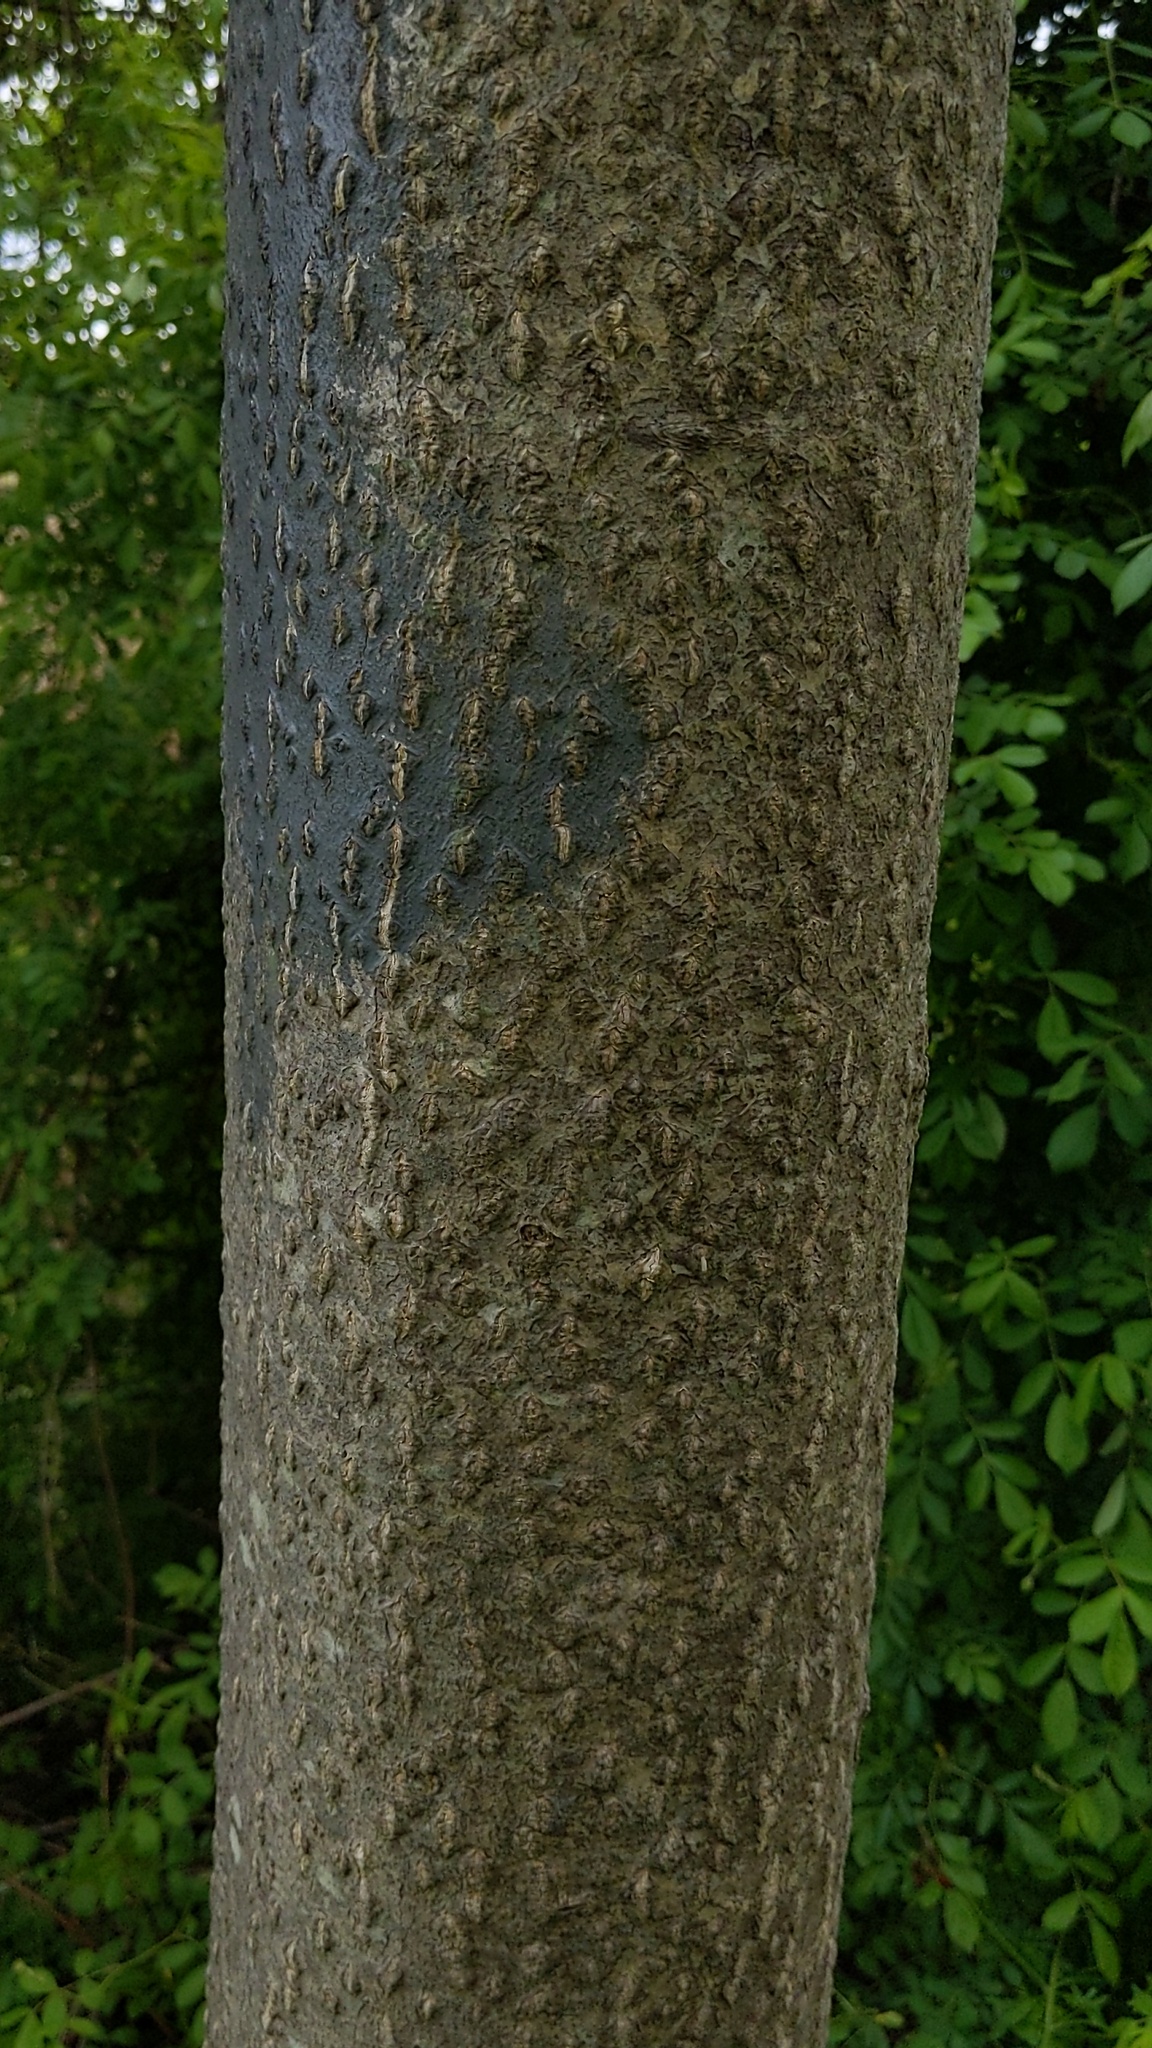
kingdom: Plantae
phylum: Tracheophyta
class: Magnoliopsida
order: Sapindales
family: Simaroubaceae
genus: Ailanthus
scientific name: Ailanthus altissima
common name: Tree-of-heaven
